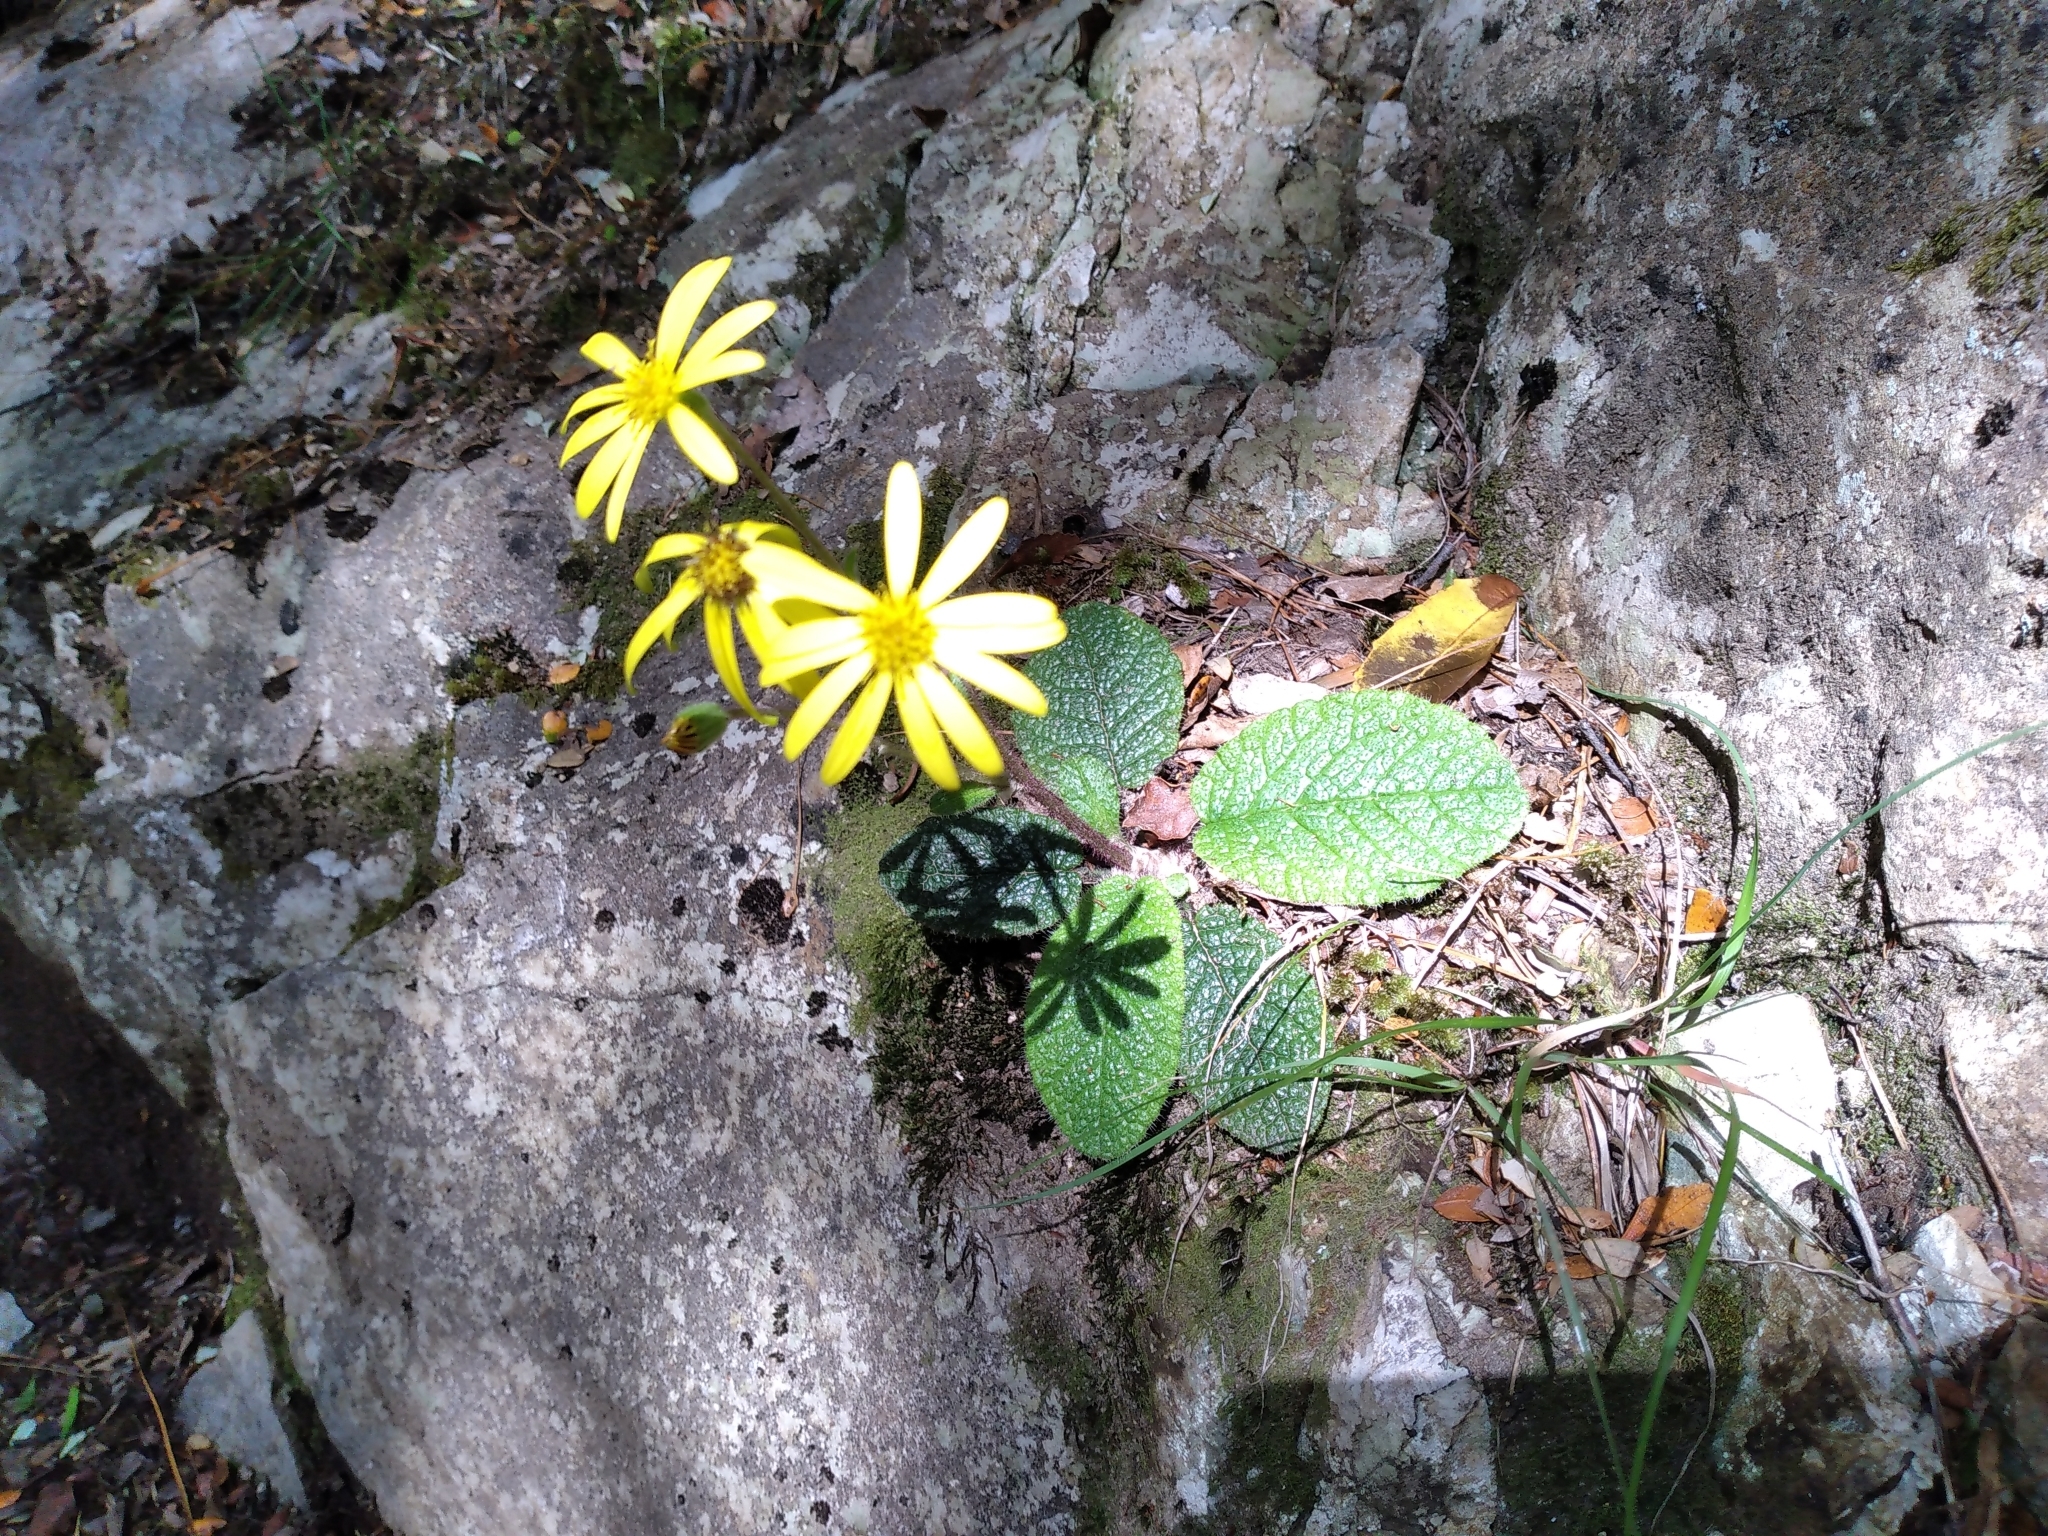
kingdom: Plantae
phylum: Tracheophyta
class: Magnoliopsida
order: Asterales
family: Asteraceae
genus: Brachyglottis
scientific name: Brachyglottis lagopus
